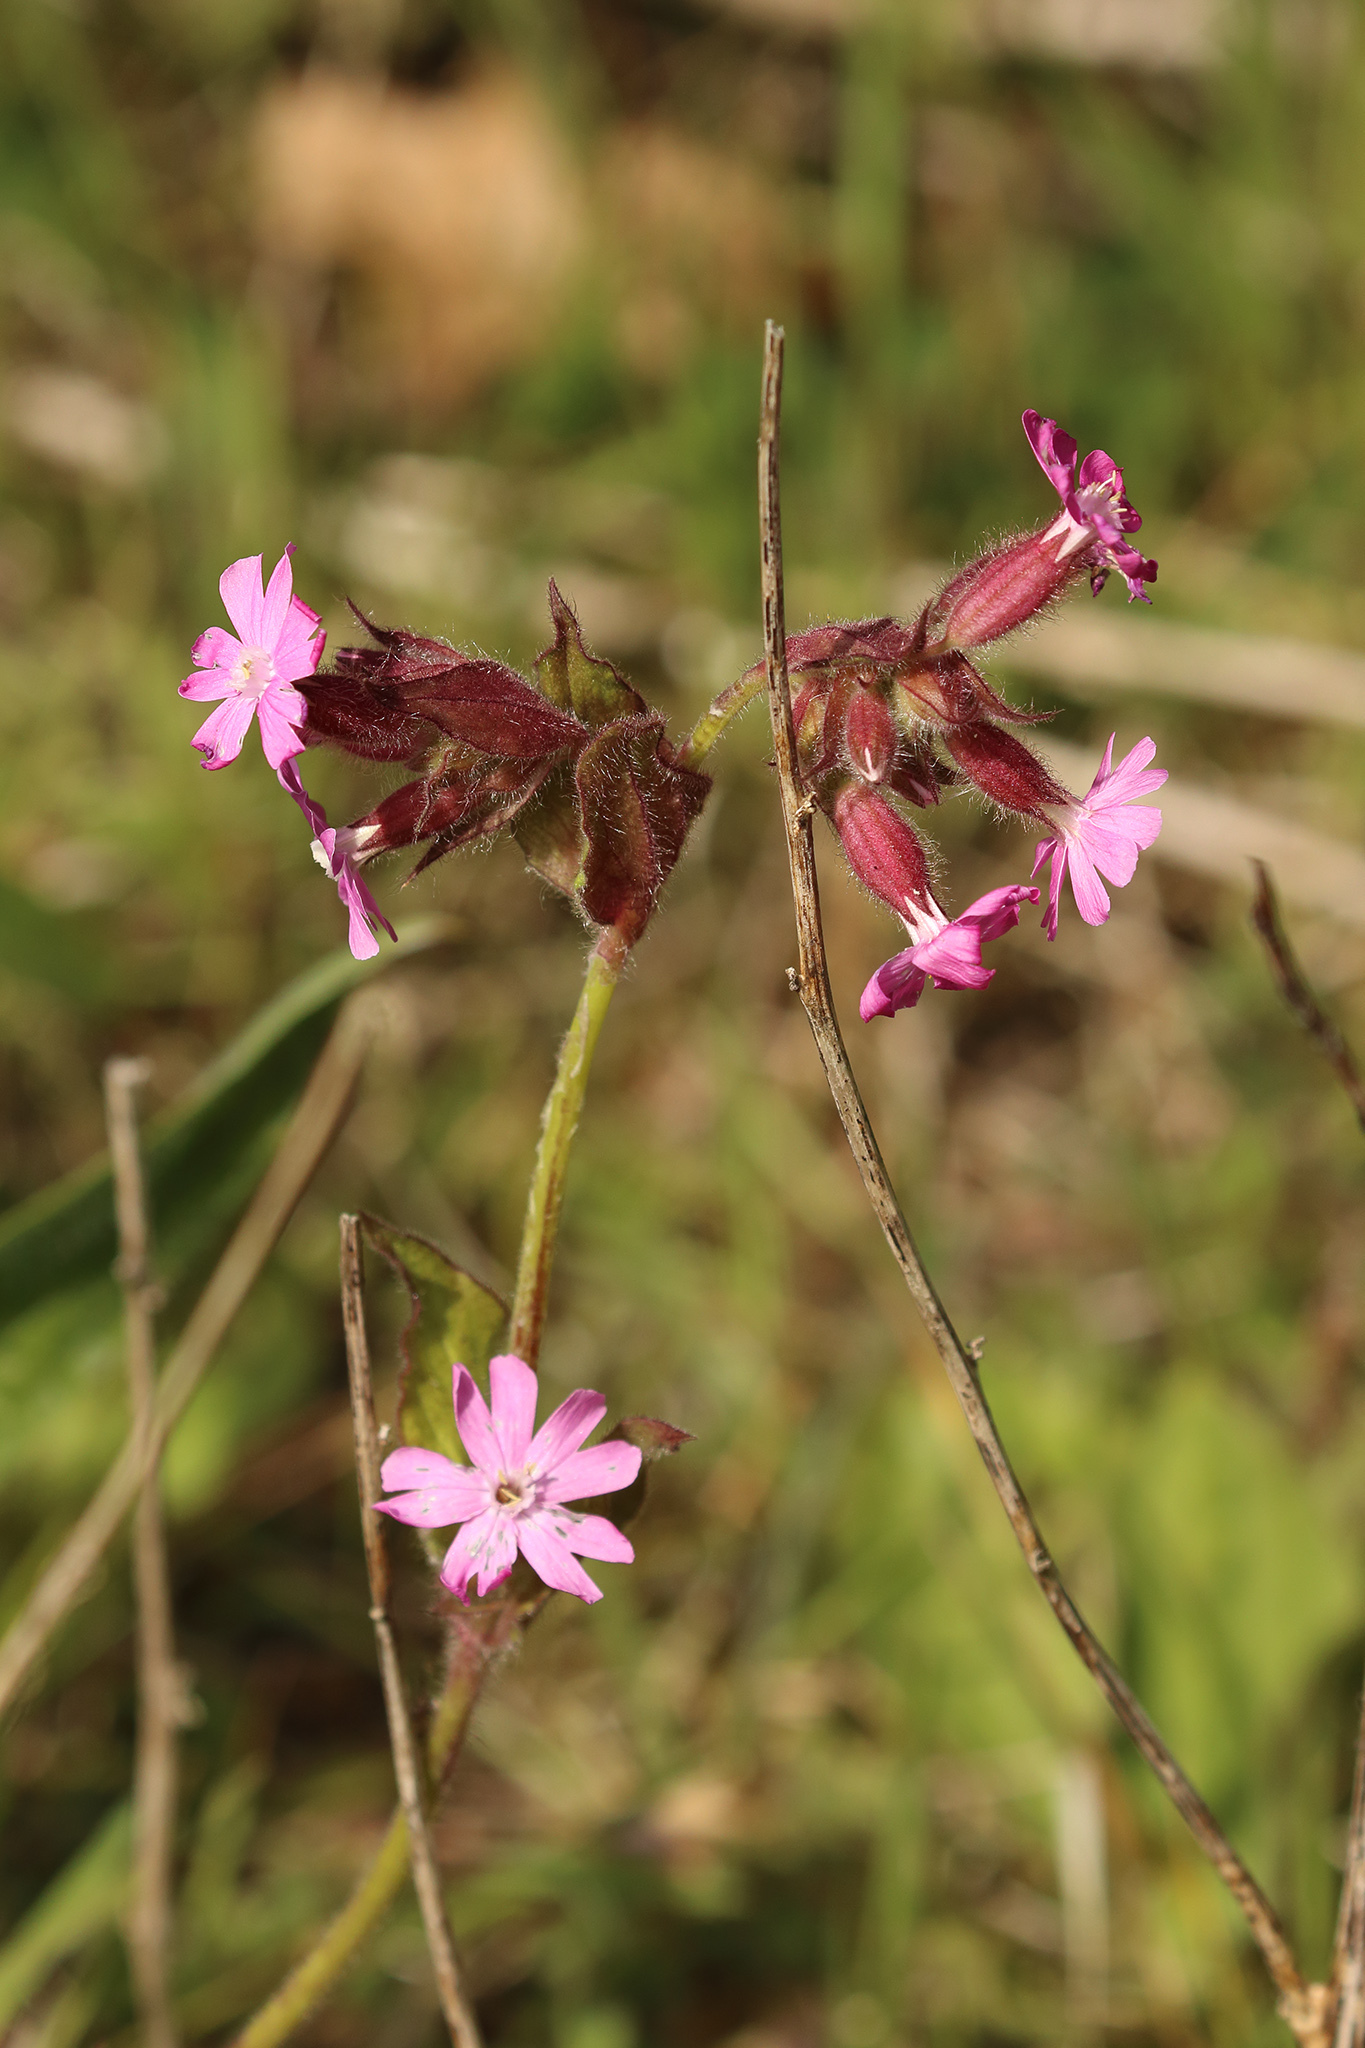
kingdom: Plantae
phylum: Tracheophyta
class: Magnoliopsida
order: Caryophyllales
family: Caryophyllaceae
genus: Silene
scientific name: Silene dioica
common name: Red campion
